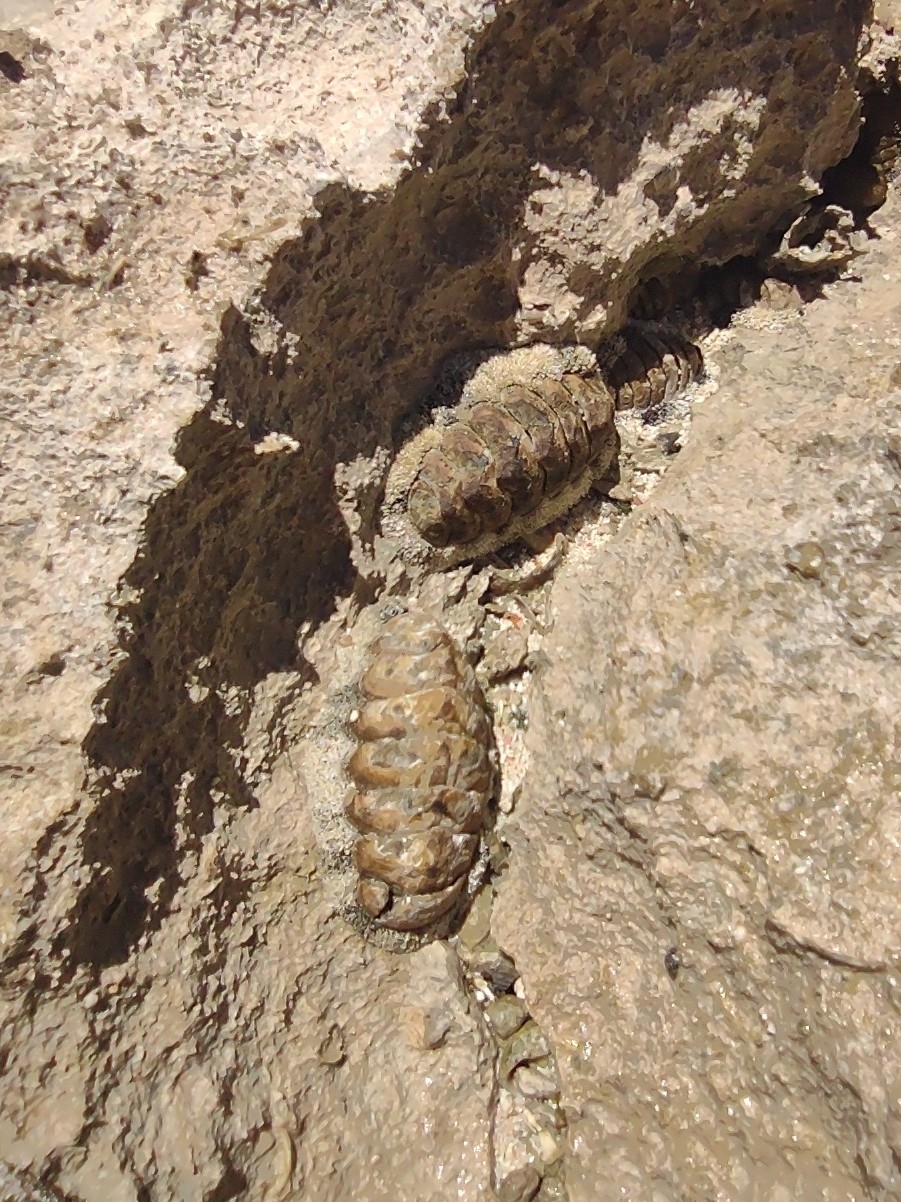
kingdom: Animalia
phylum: Mollusca
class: Polyplacophora
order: Chitonida
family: Chitonidae
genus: Acanthopleura
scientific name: Acanthopleura granulata
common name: West indian fuzzy chiton
